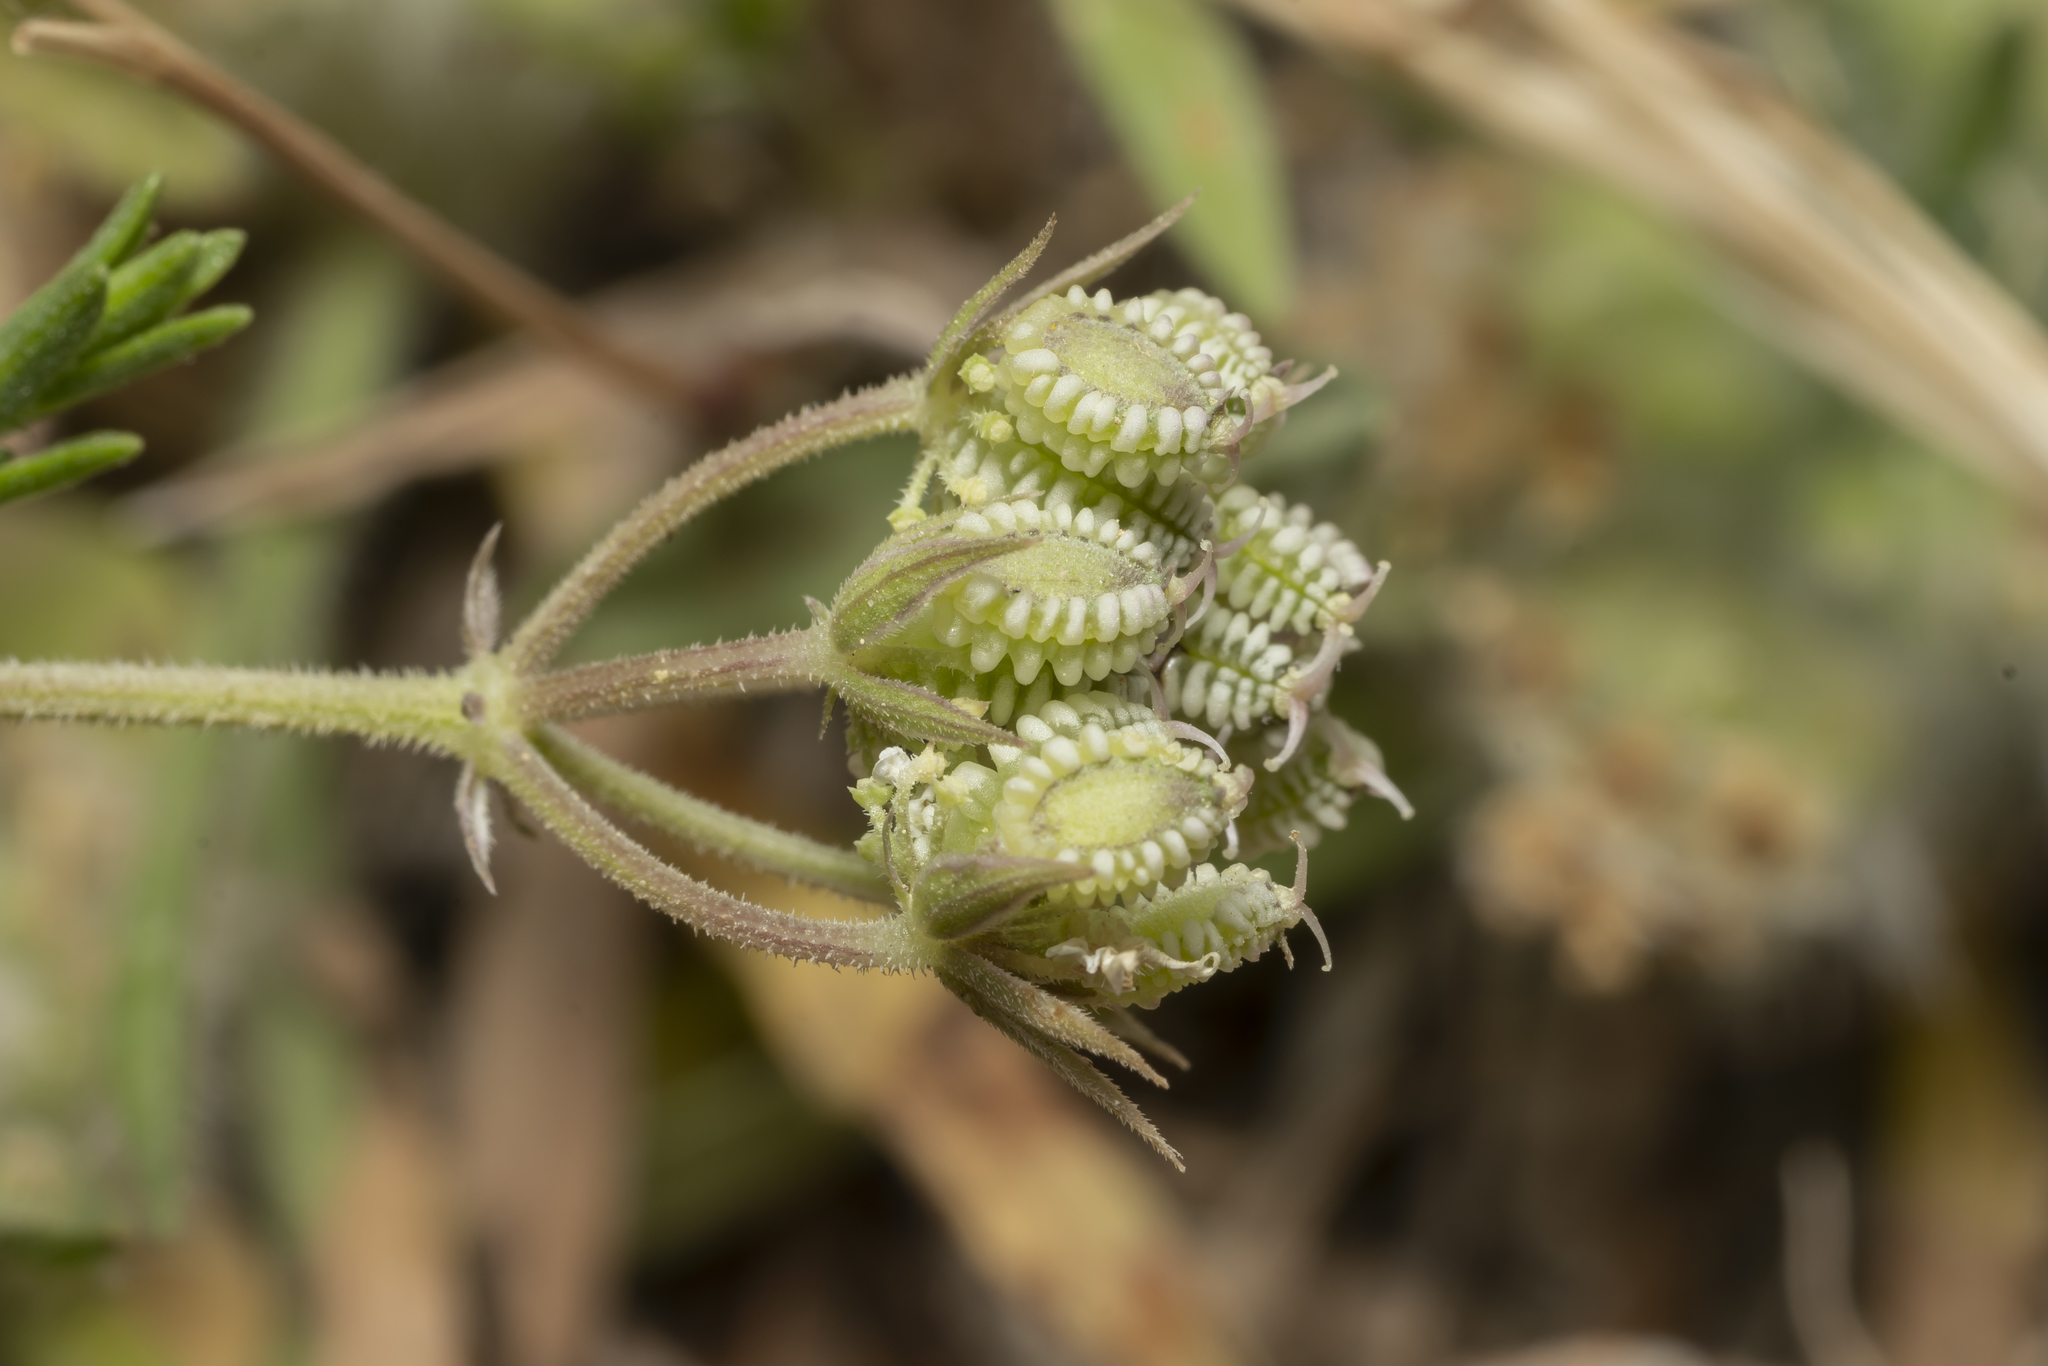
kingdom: Plantae
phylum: Tracheophyta
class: Magnoliopsida
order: Apiales
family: Apiaceae
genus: Tordylium
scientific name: Tordylium pestalozzae
